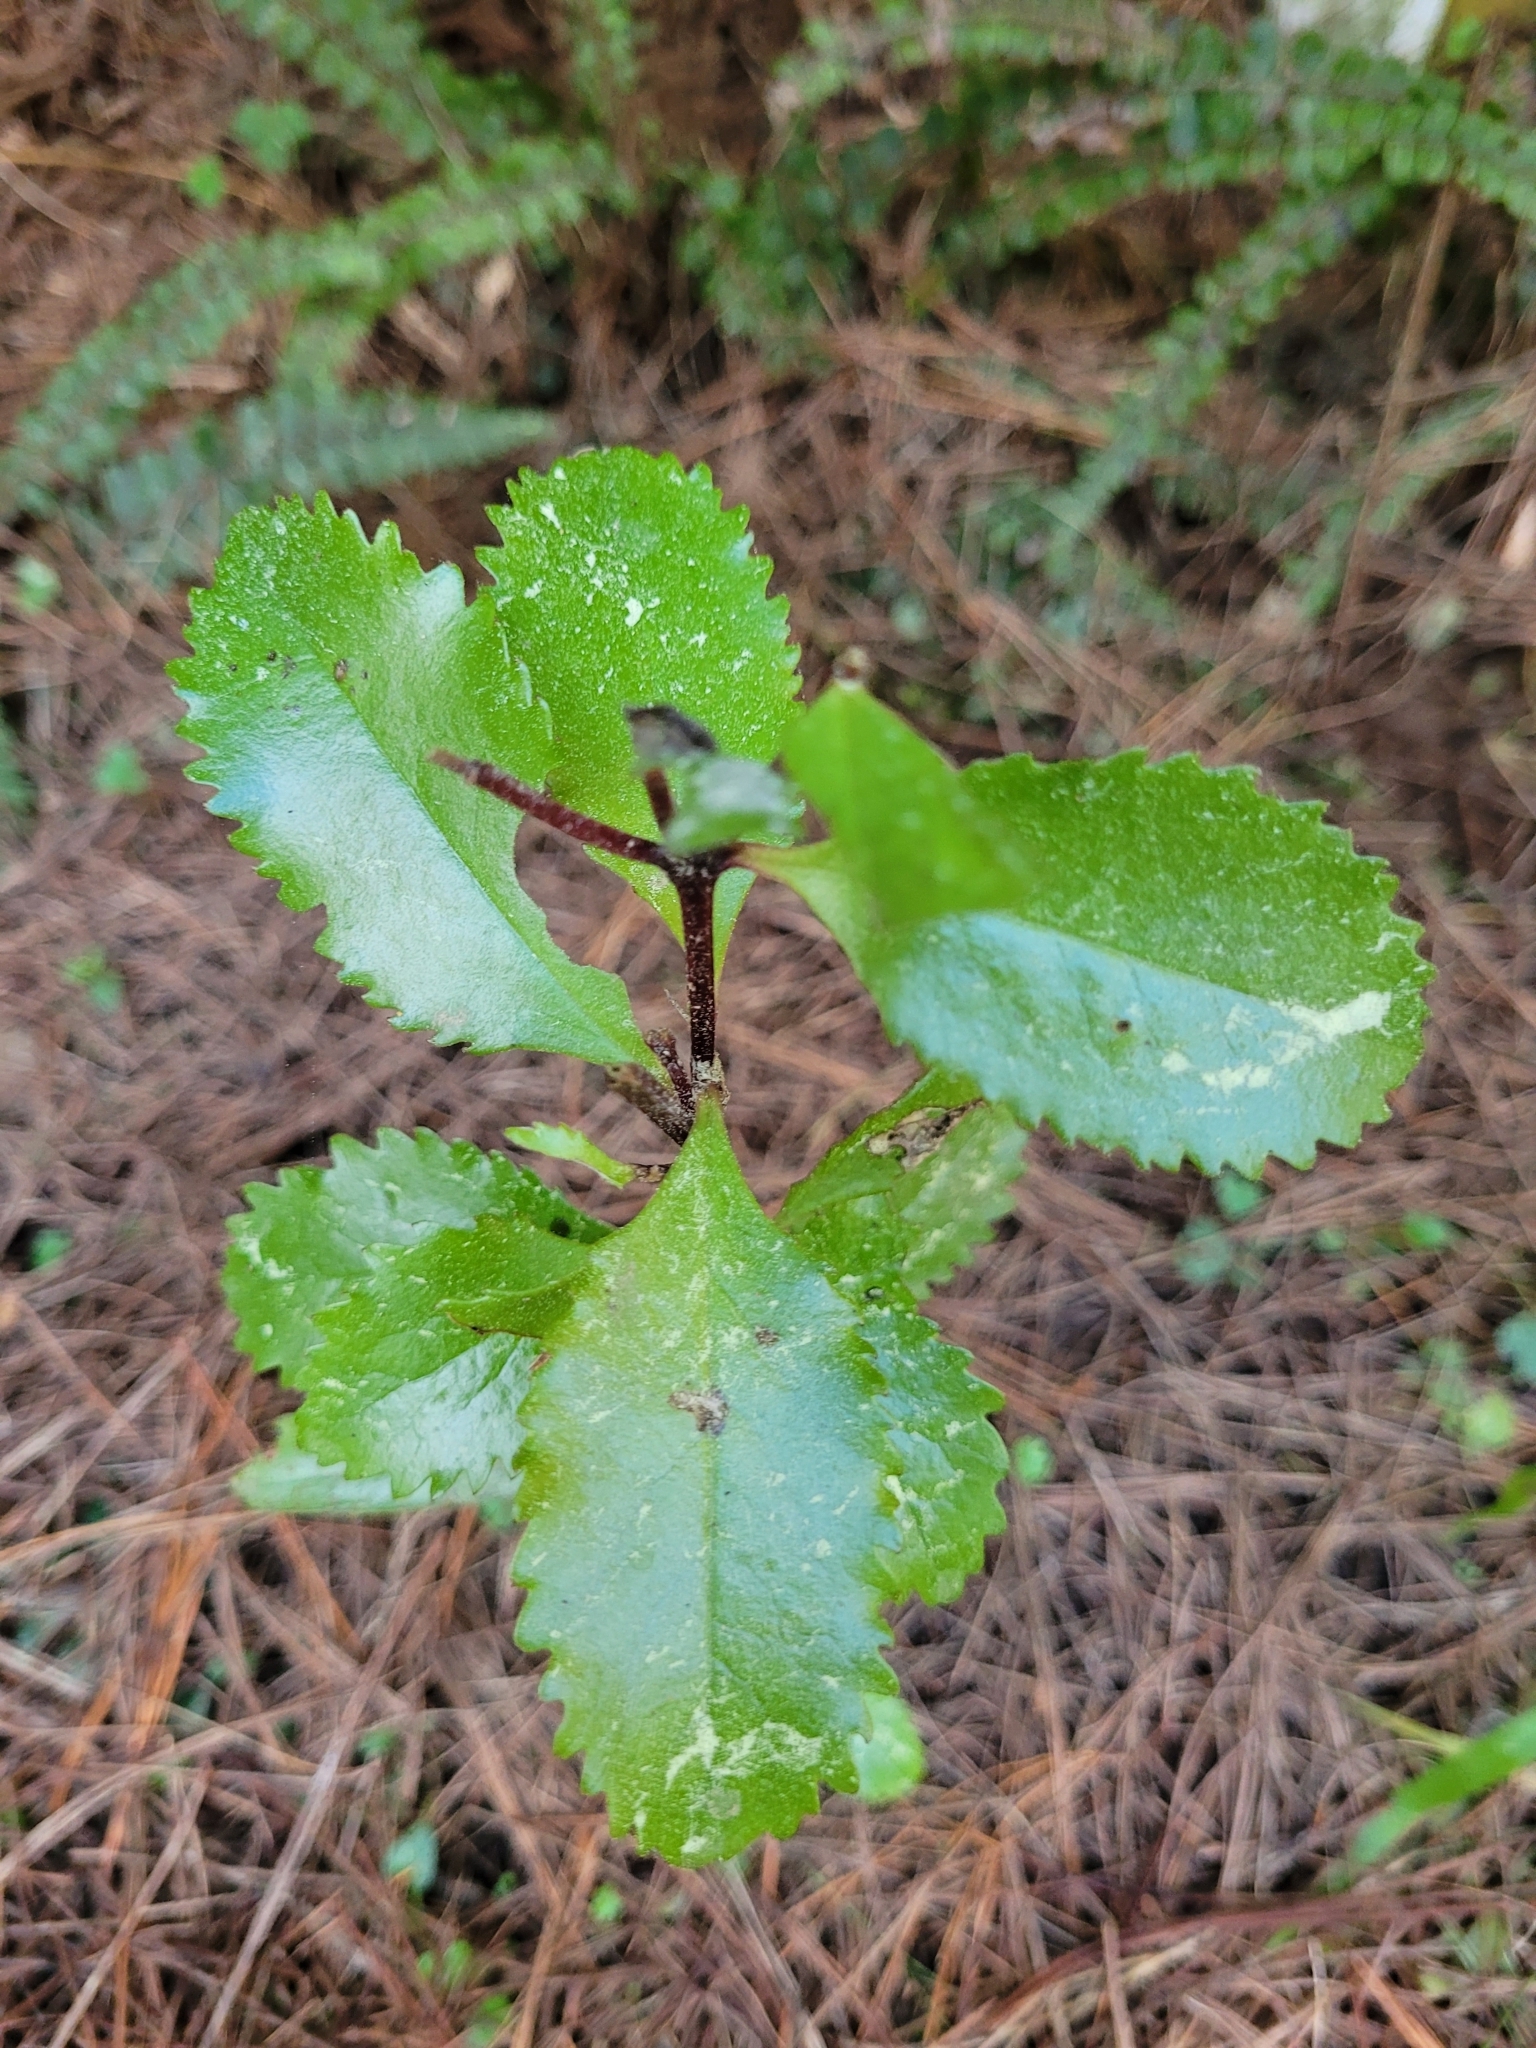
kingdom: Plantae
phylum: Tracheophyta
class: Magnoliopsida
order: Laurales
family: Atherospermataceae
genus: Laurelia
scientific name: Laurelia novae-zelandiae
